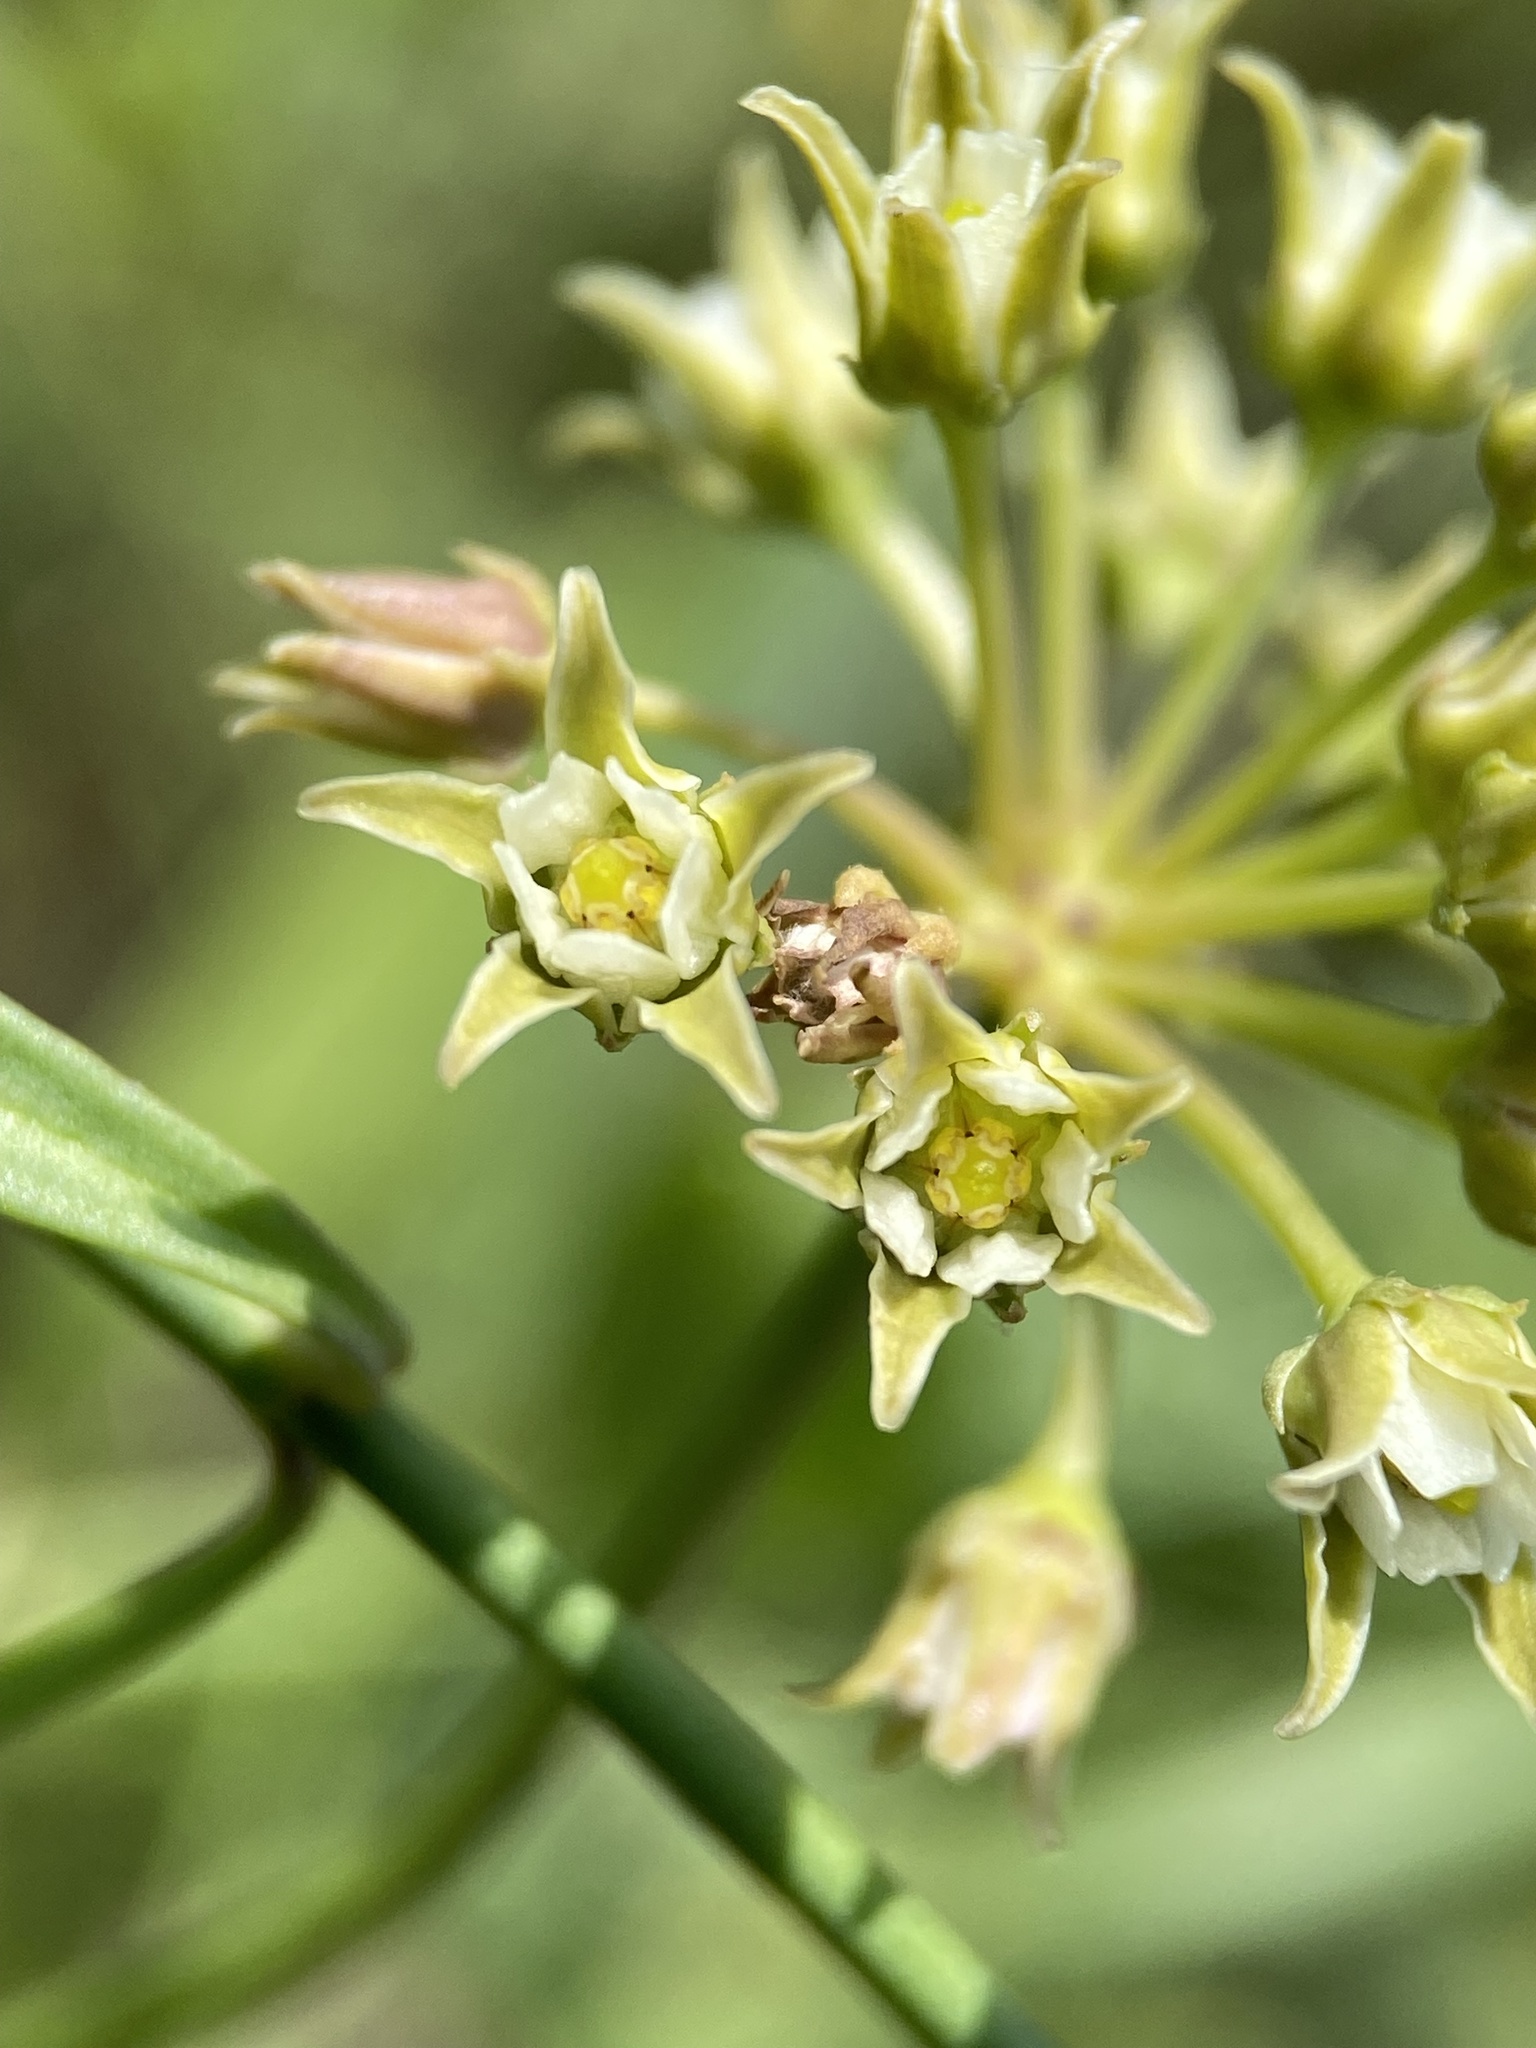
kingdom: Plantae
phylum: Tracheophyta
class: Magnoliopsida
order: Gentianales
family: Apocynaceae
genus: Pattalias
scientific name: Pattalias
